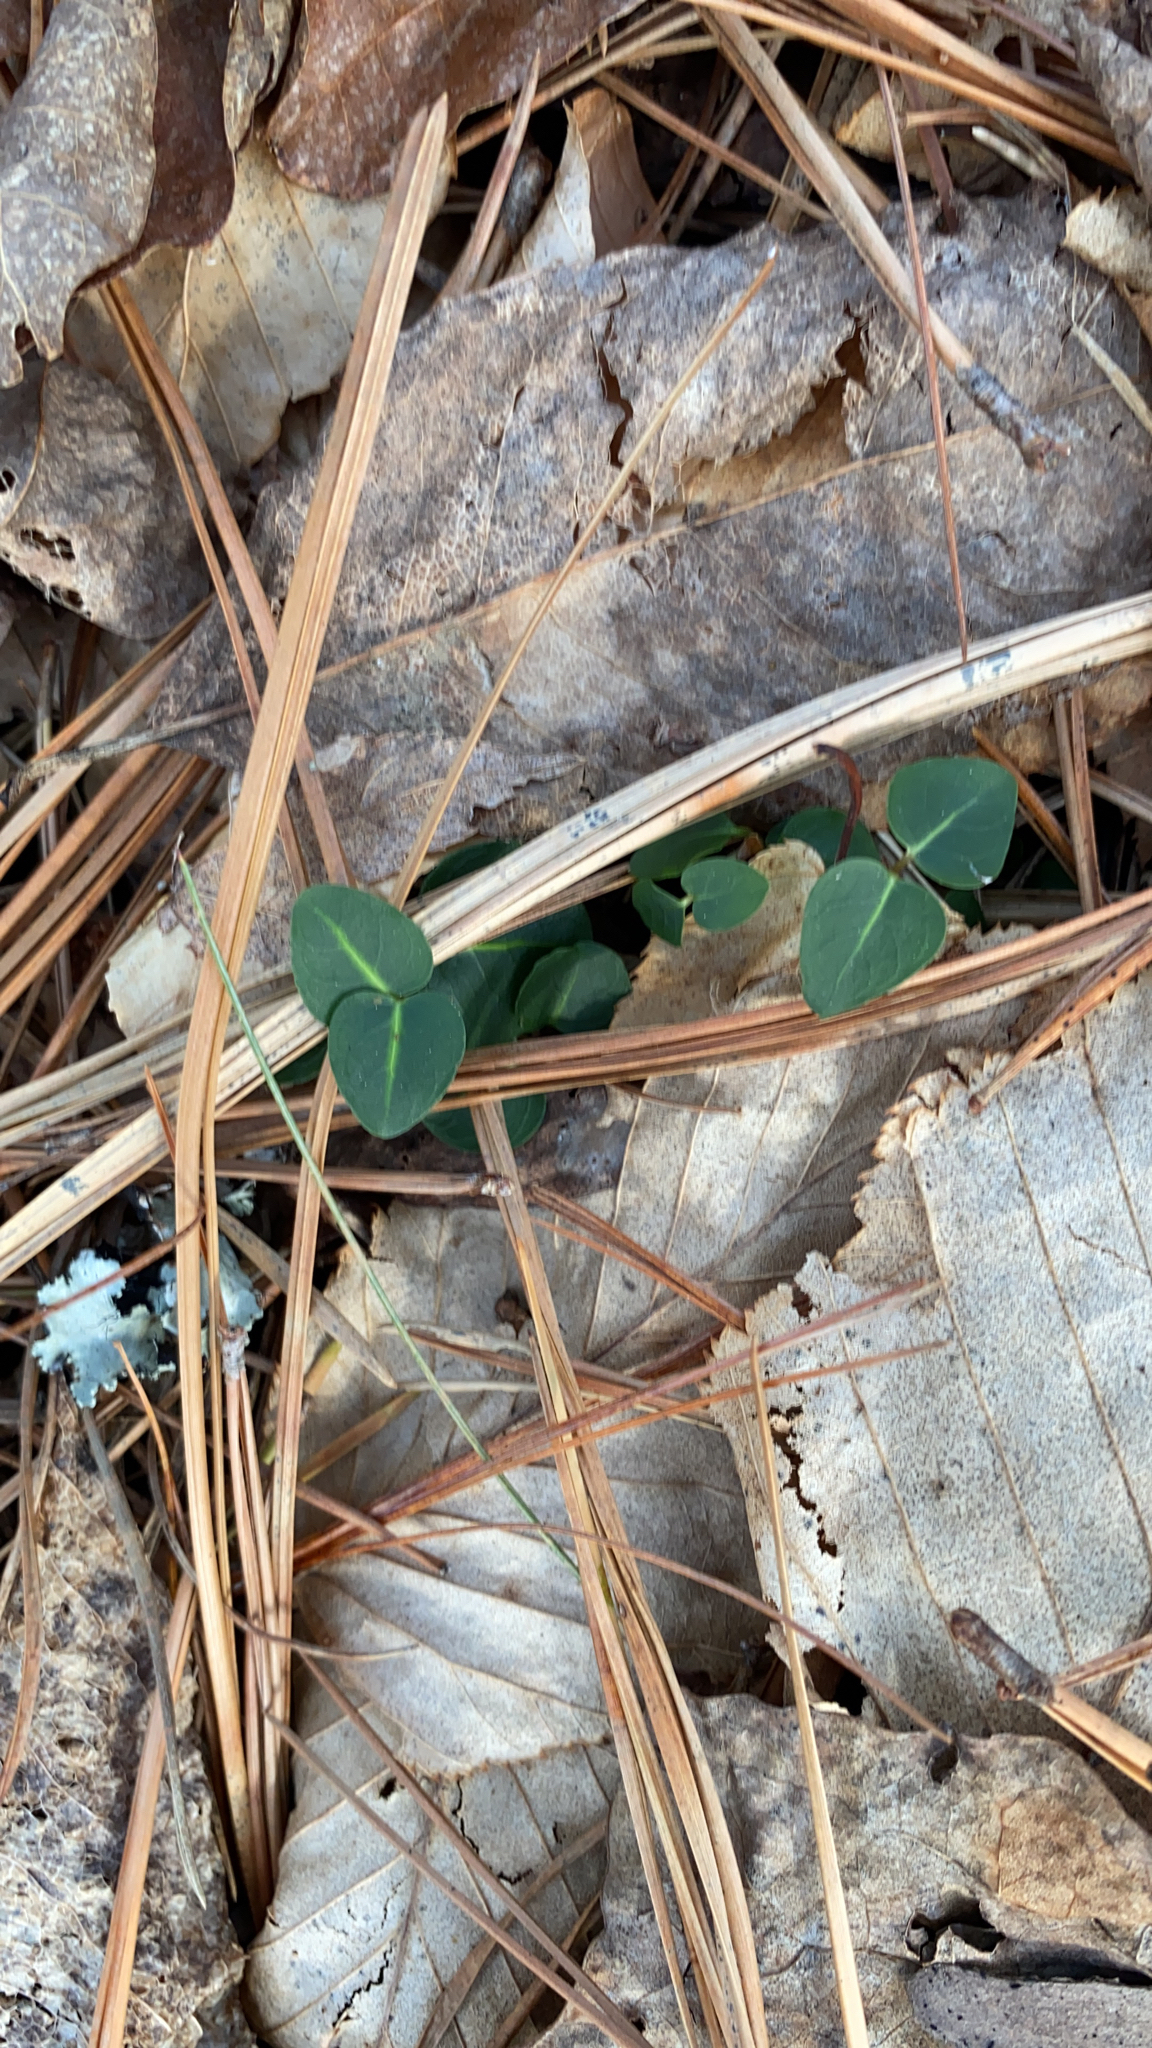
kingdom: Plantae
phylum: Tracheophyta
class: Magnoliopsida
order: Gentianales
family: Rubiaceae
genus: Mitchella
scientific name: Mitchella repens
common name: Partridge-berry
